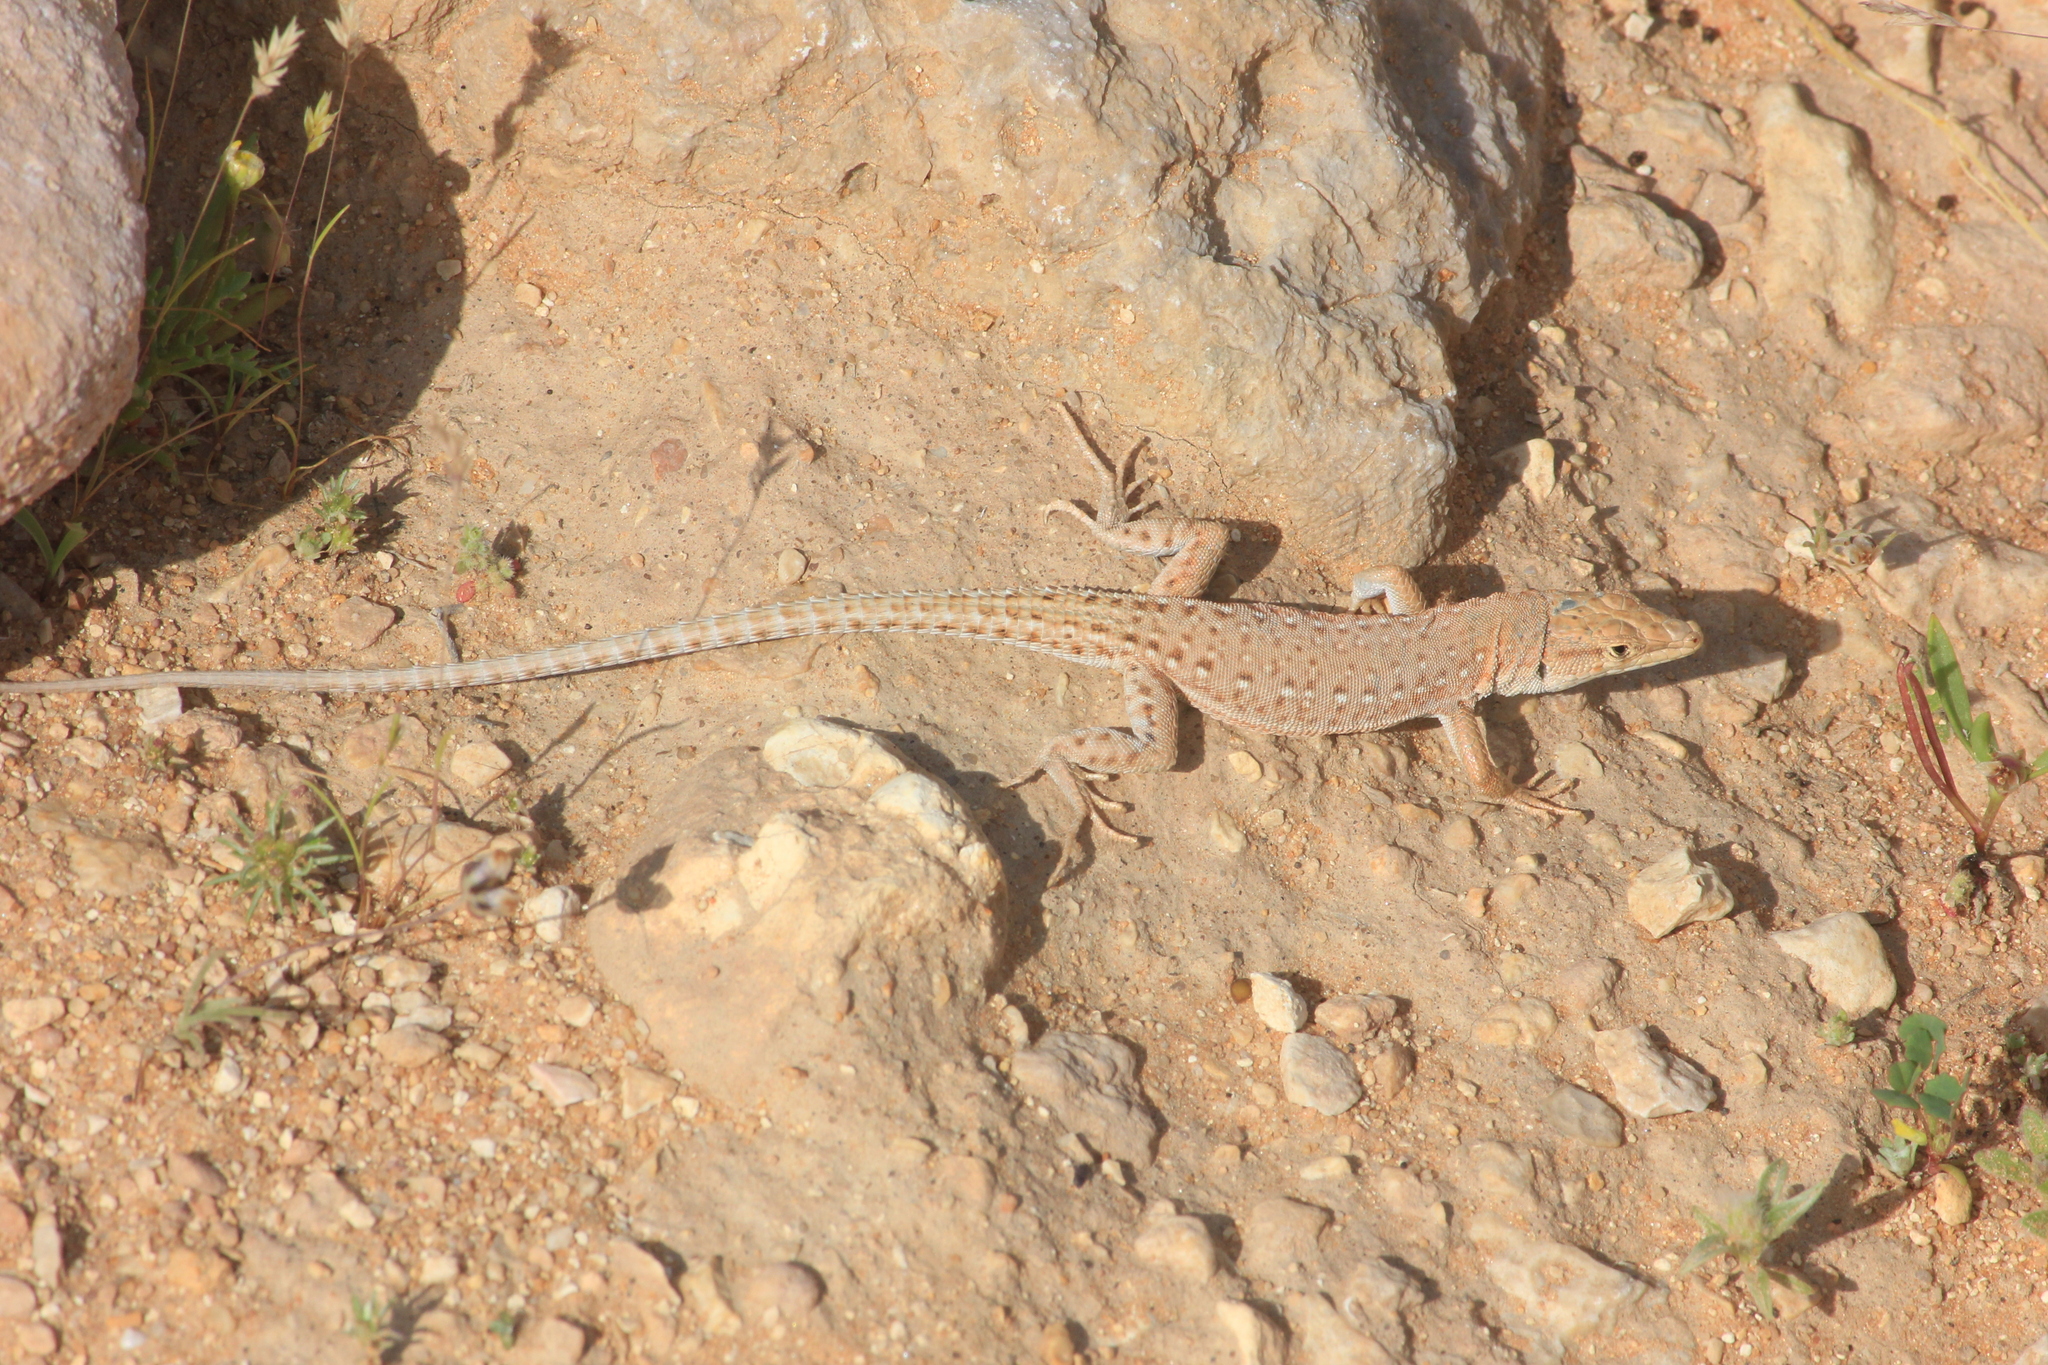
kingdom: Animalia
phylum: Chordata
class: Squamata
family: Lacertidae
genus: Mesalina
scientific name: Mesalina guttulata
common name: Desert lacerta
